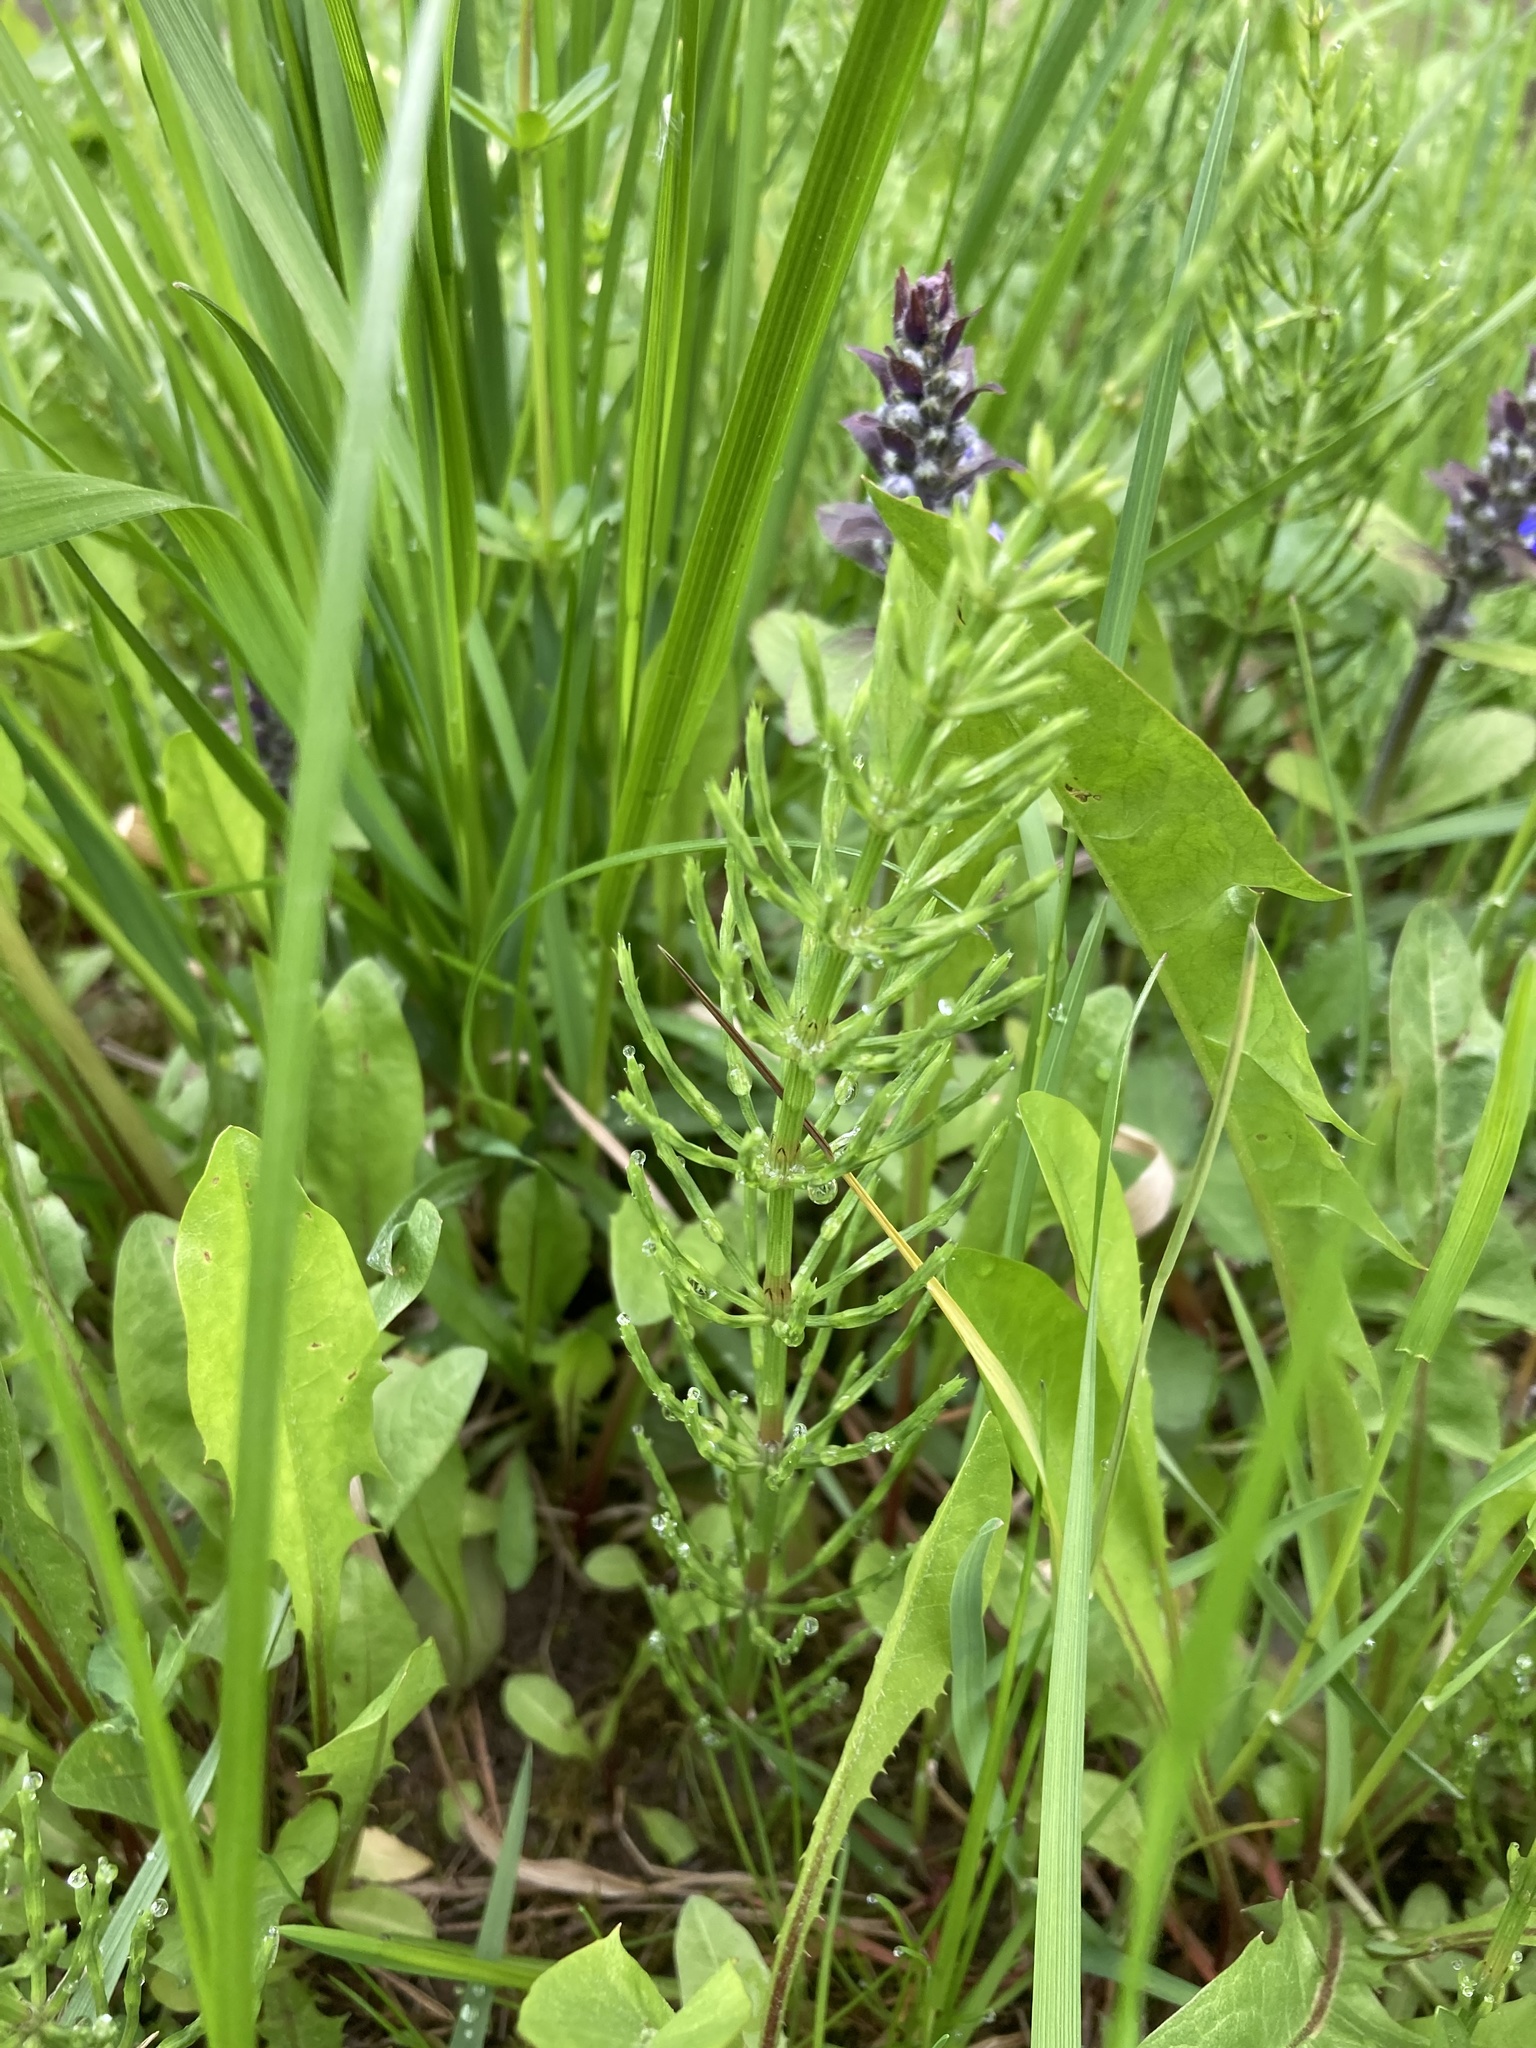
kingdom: Plantae
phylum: Tracheophyta
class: Polypodiopsida
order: Equisetales
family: Equisetaceae
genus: Equisetum
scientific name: Equisetum arvense
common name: Field horsetail
